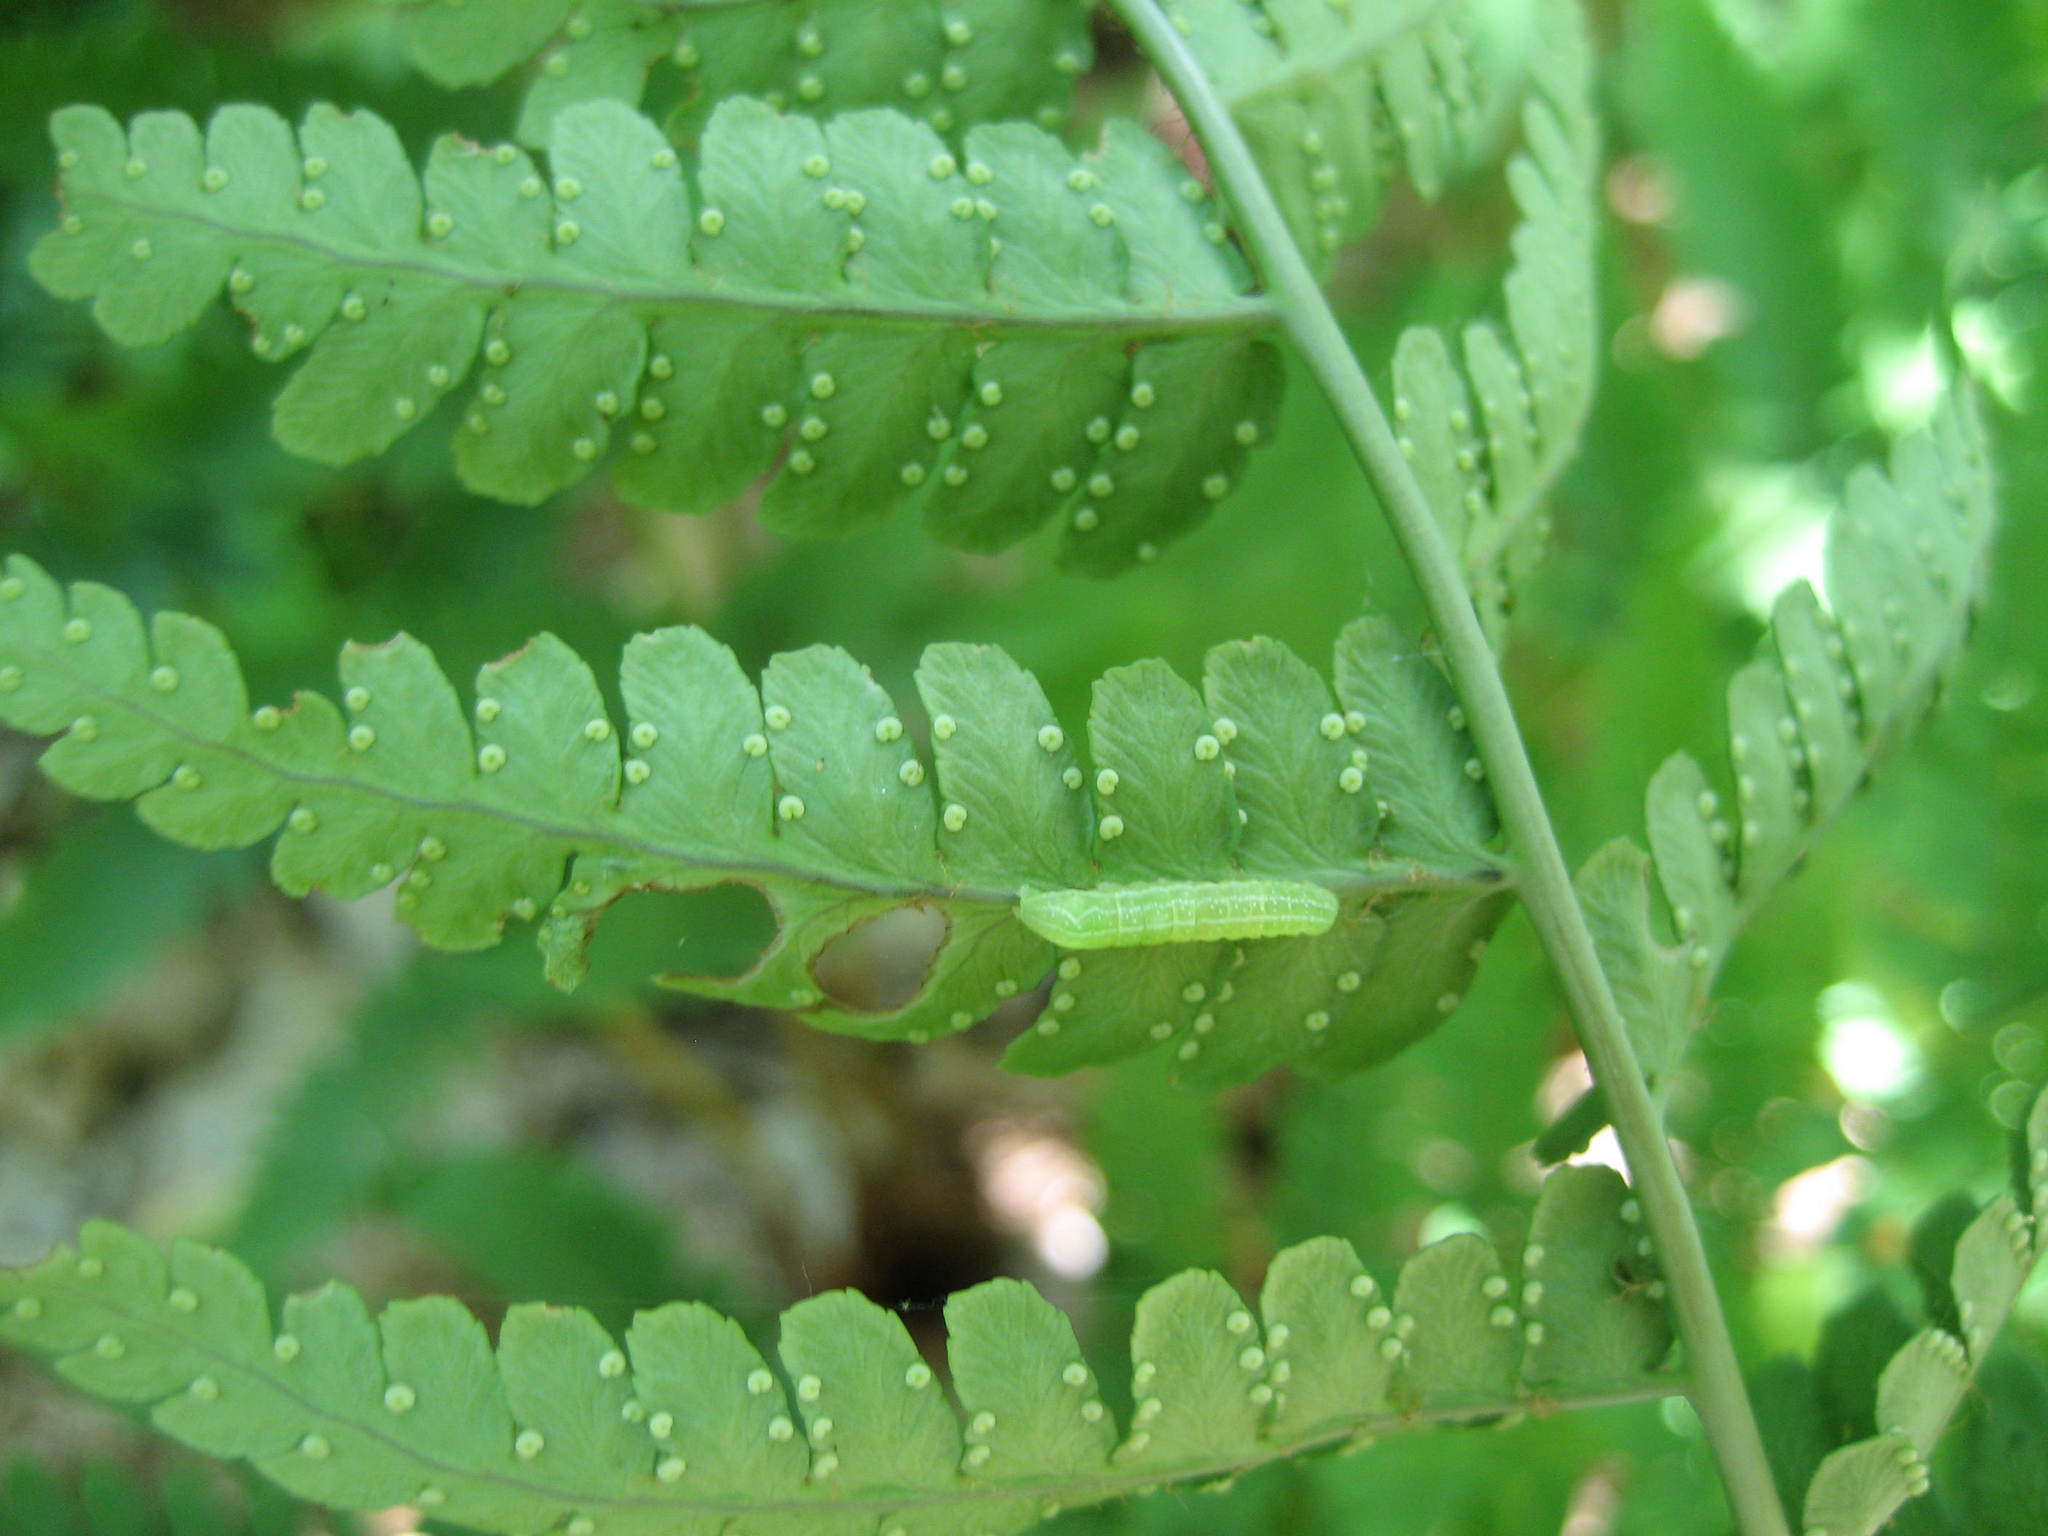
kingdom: Plantae
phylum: Tracheophyta
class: Polypodiopsida
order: Polypodiales
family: Dryopteridaceae
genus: Dryopteris
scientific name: Dryopteris marginalis
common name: Marginal wood fern
